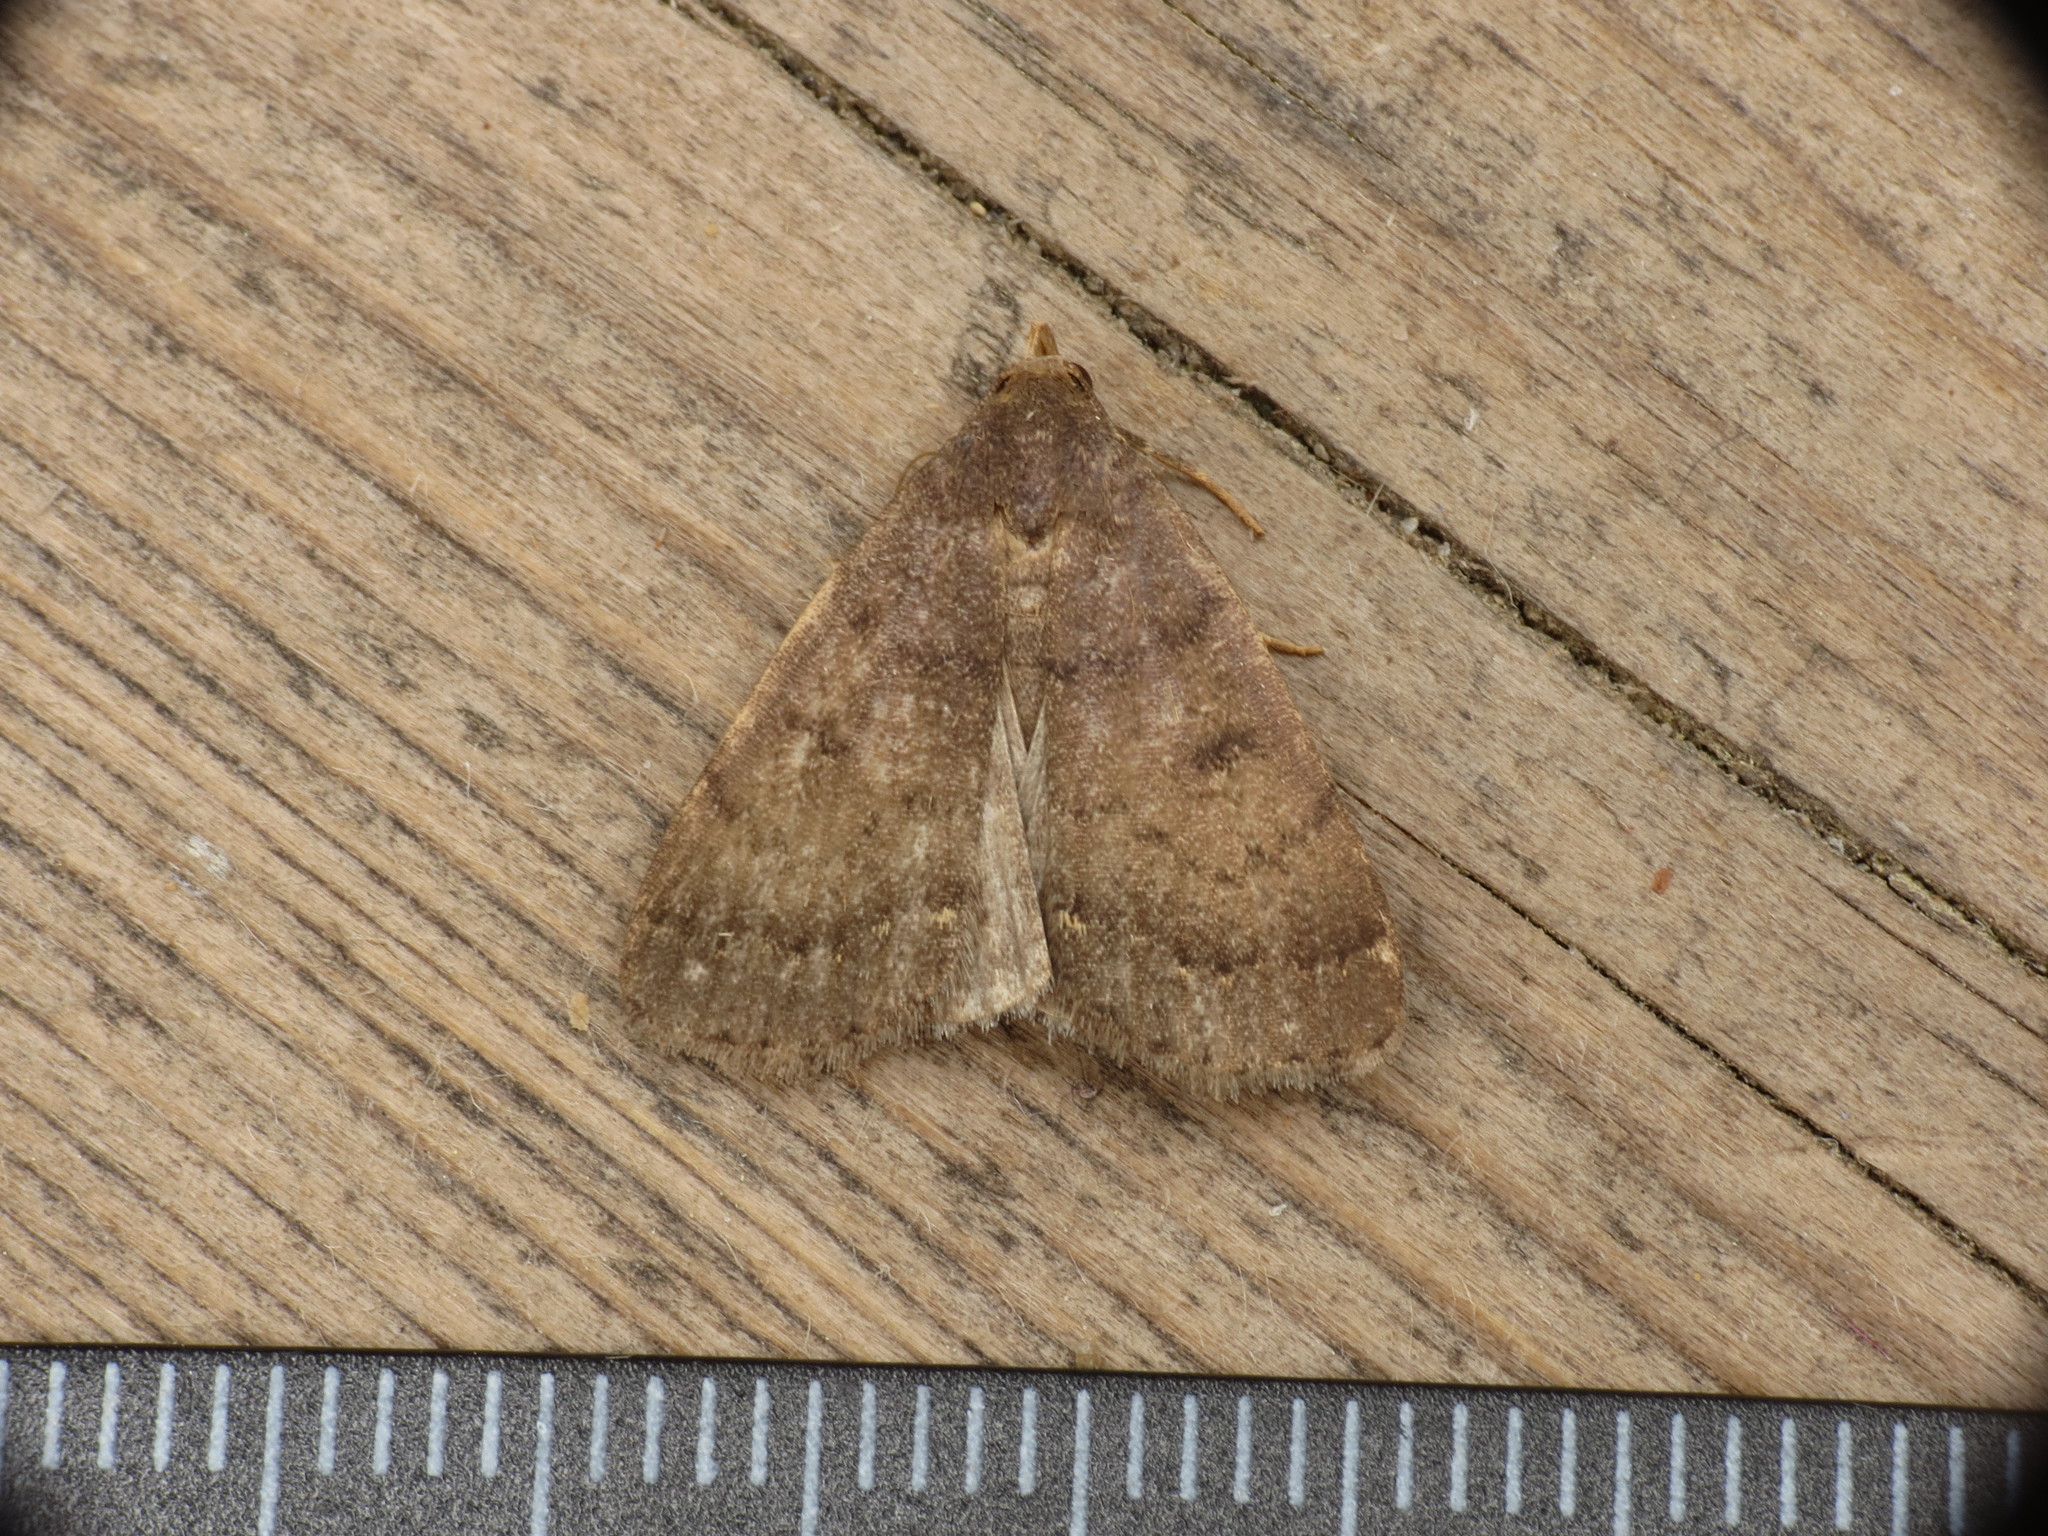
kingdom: Animalia
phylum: Arthropoda
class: Insecta
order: Lepidoptera
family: Erebidae
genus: Nodaria
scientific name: Nodaria nodosalis
